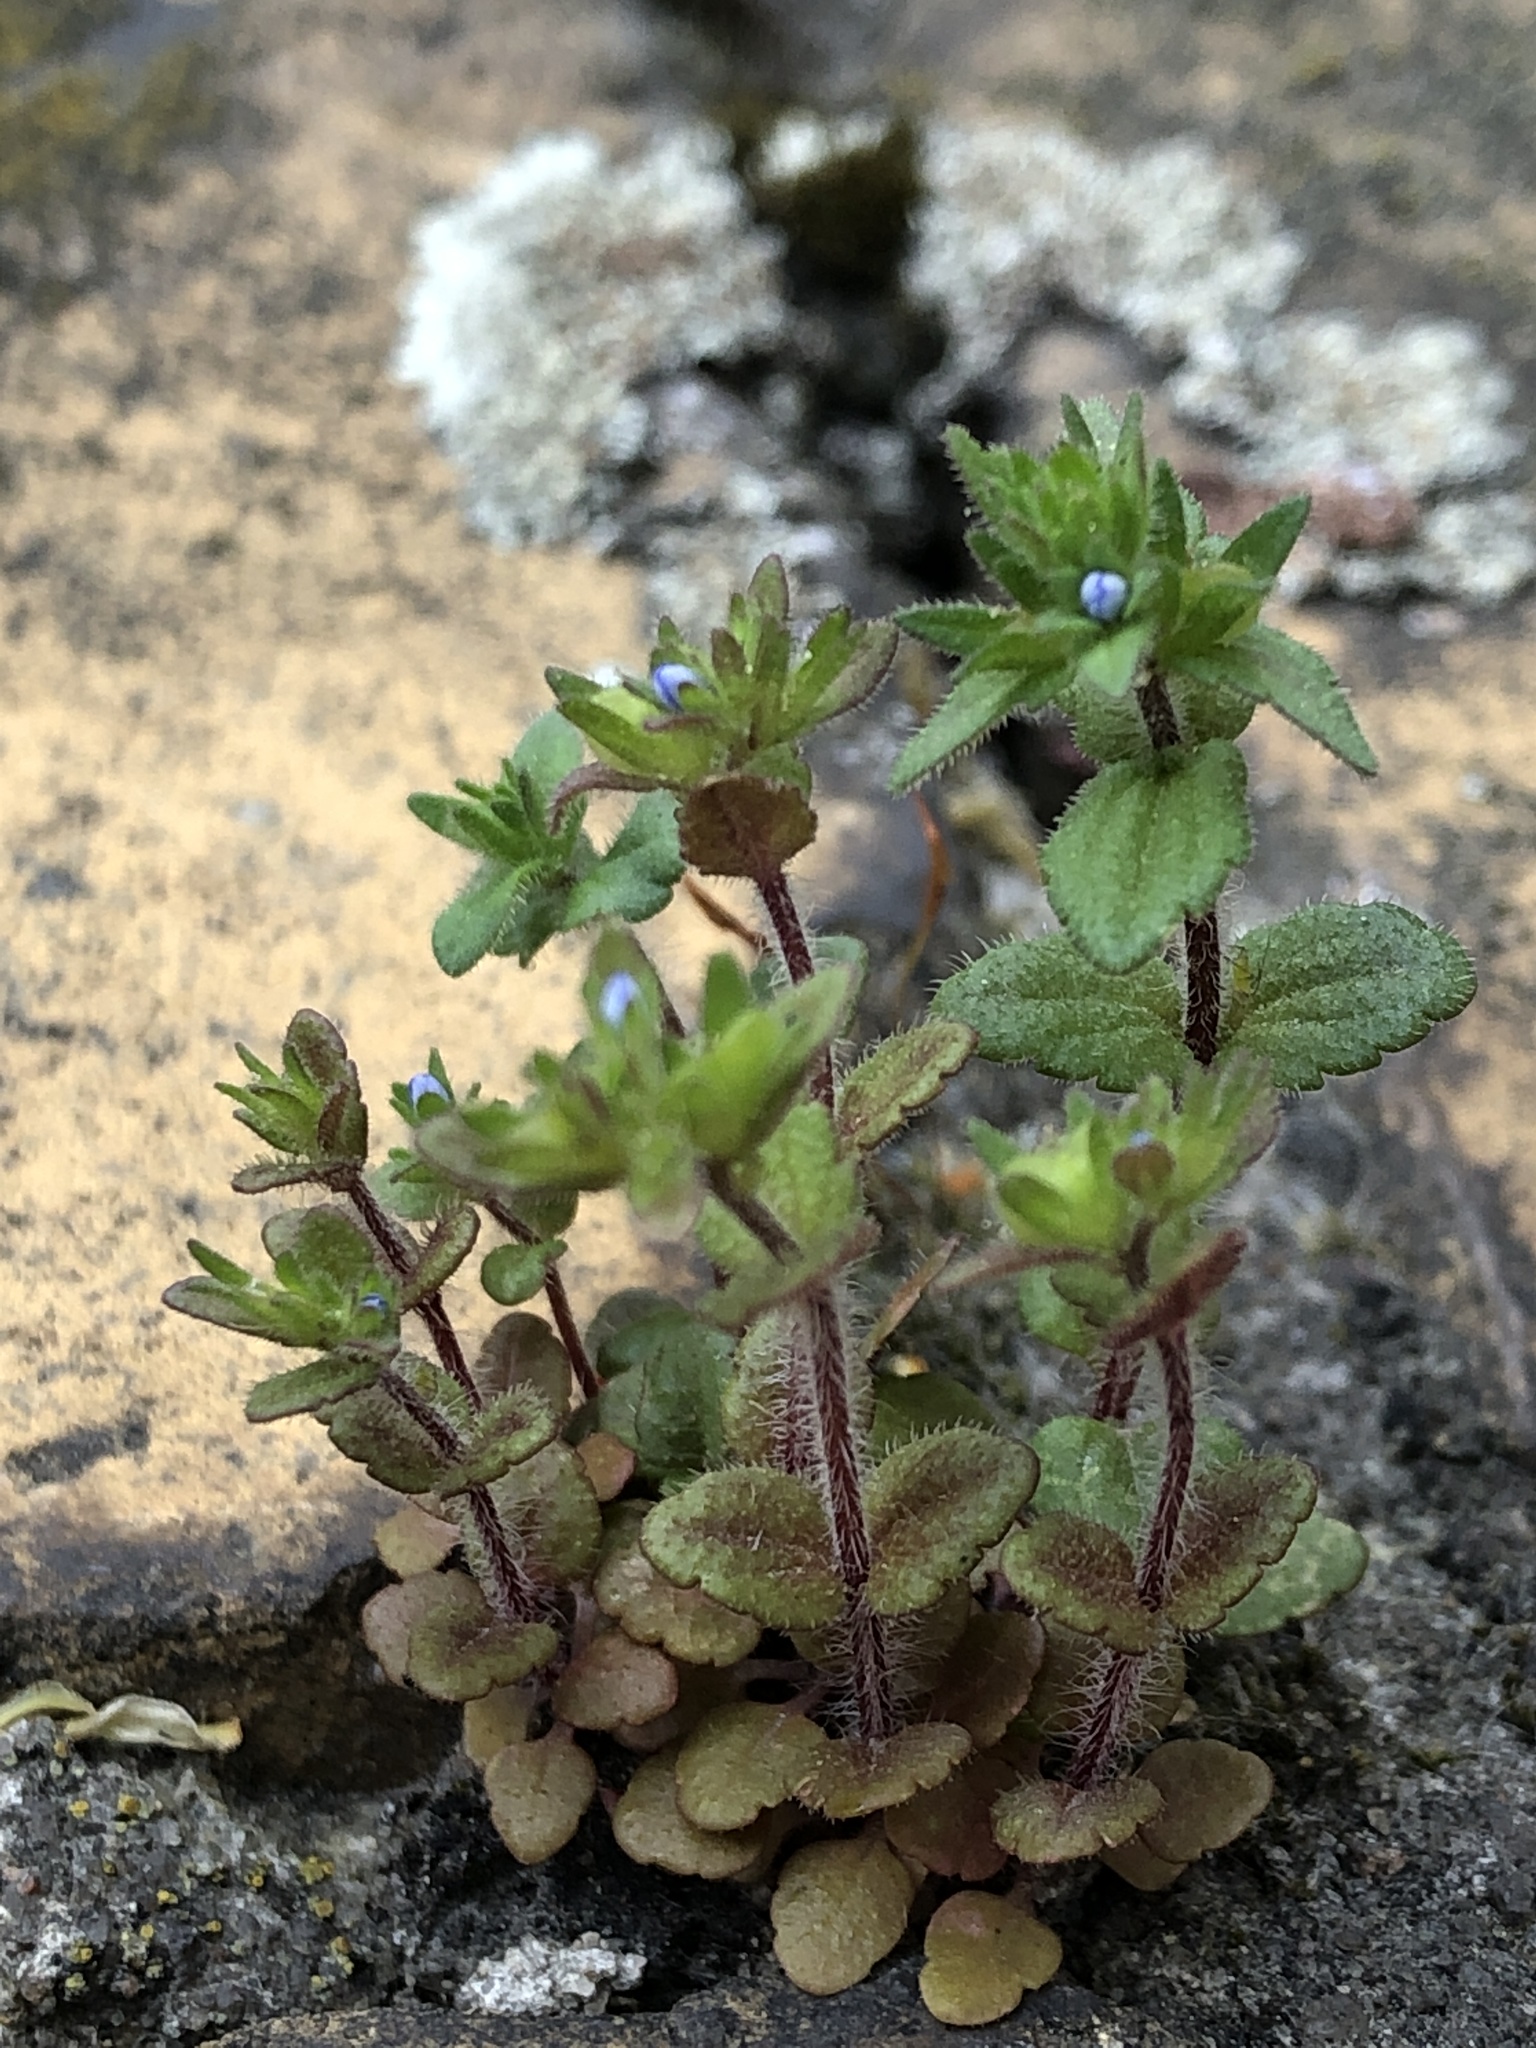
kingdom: Plantae
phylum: Tracheophyta
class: Magnoliopsida
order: Lamiales
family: Plantaginaceae
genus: Veronica
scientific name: Veronica arvensis
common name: Corn speedwell
